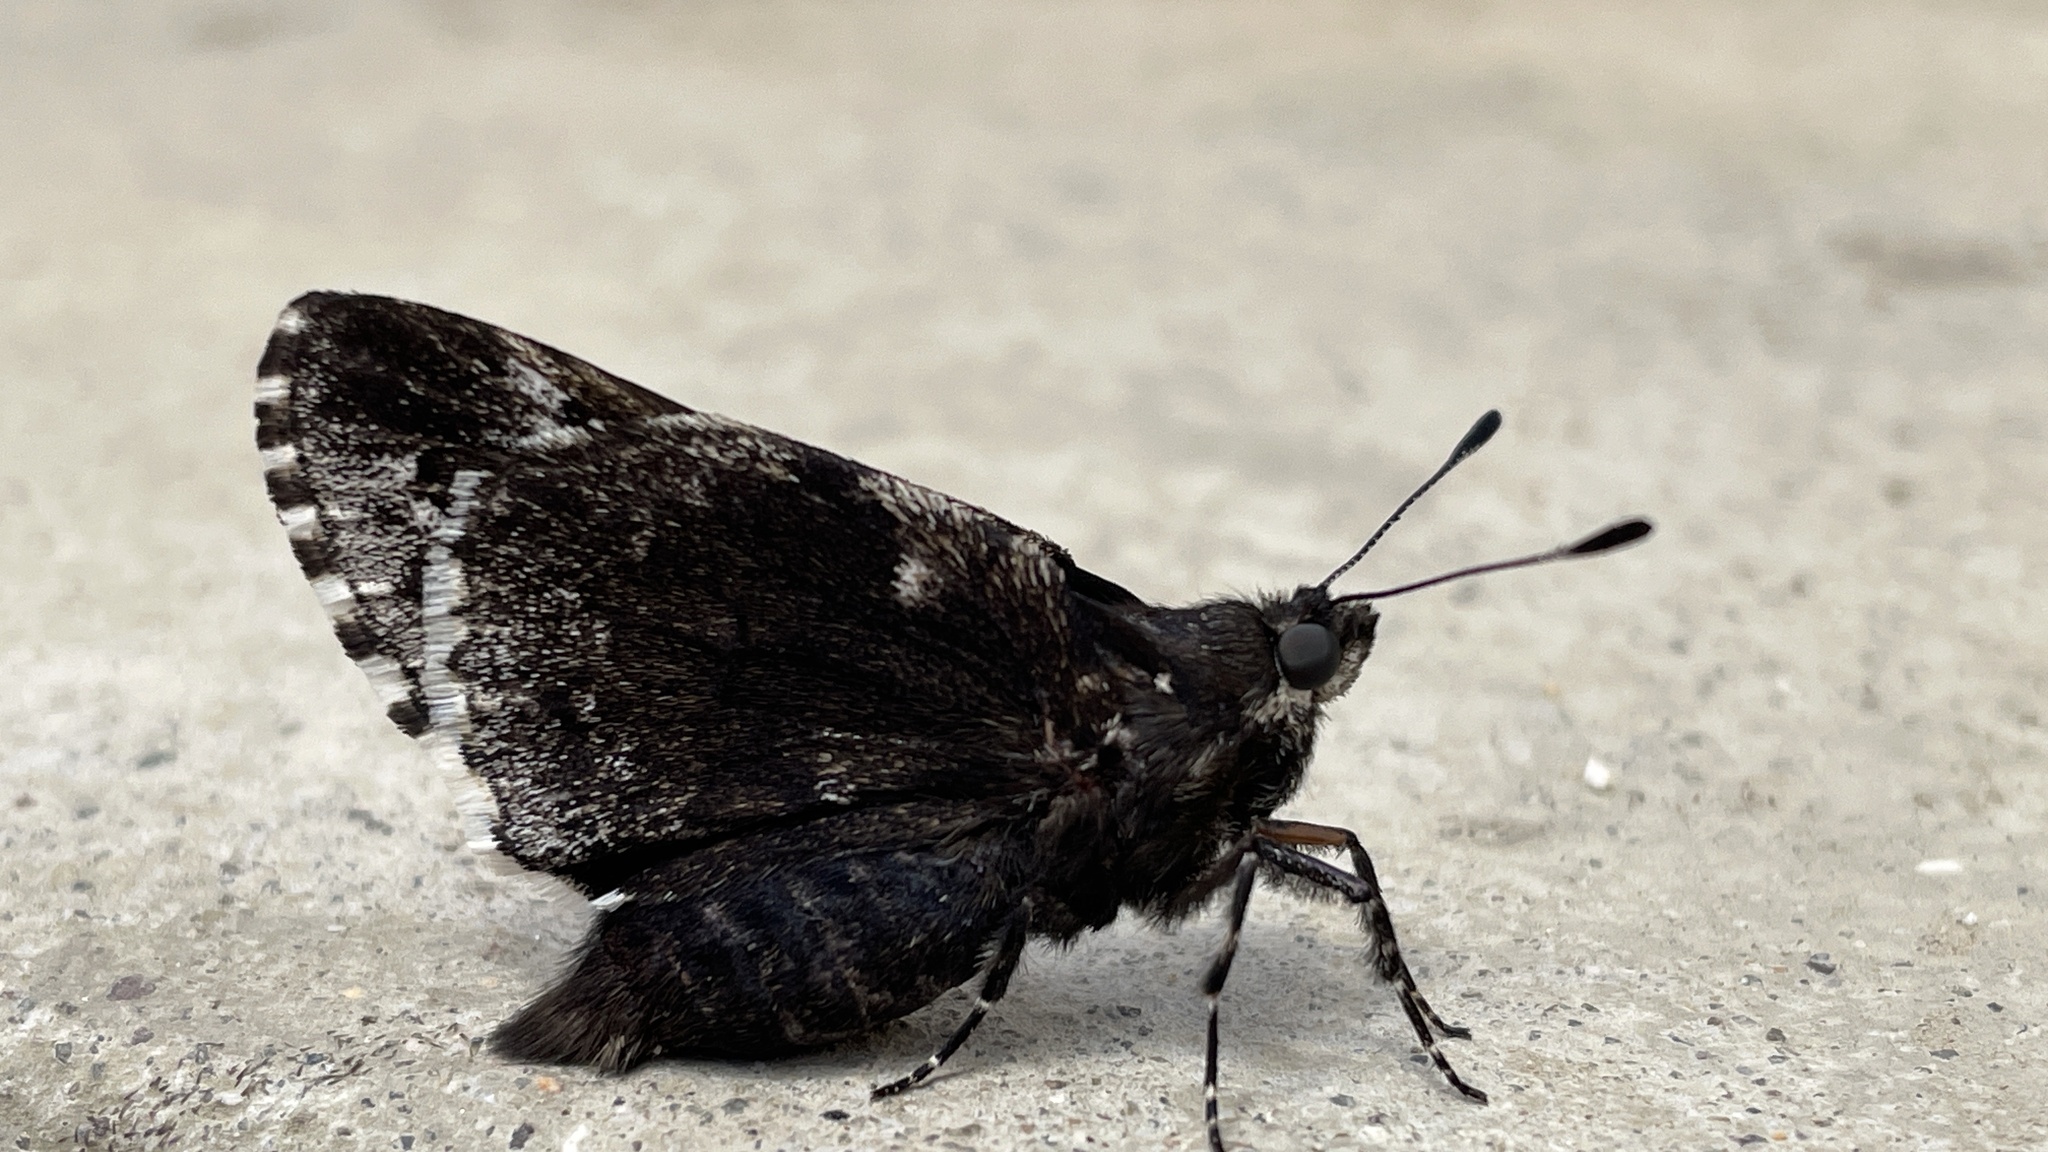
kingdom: Animalia
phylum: Arthropoda
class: Insecta
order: Lepidoptera
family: Hesperiidae
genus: Agathymus
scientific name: Agathymus rethon
